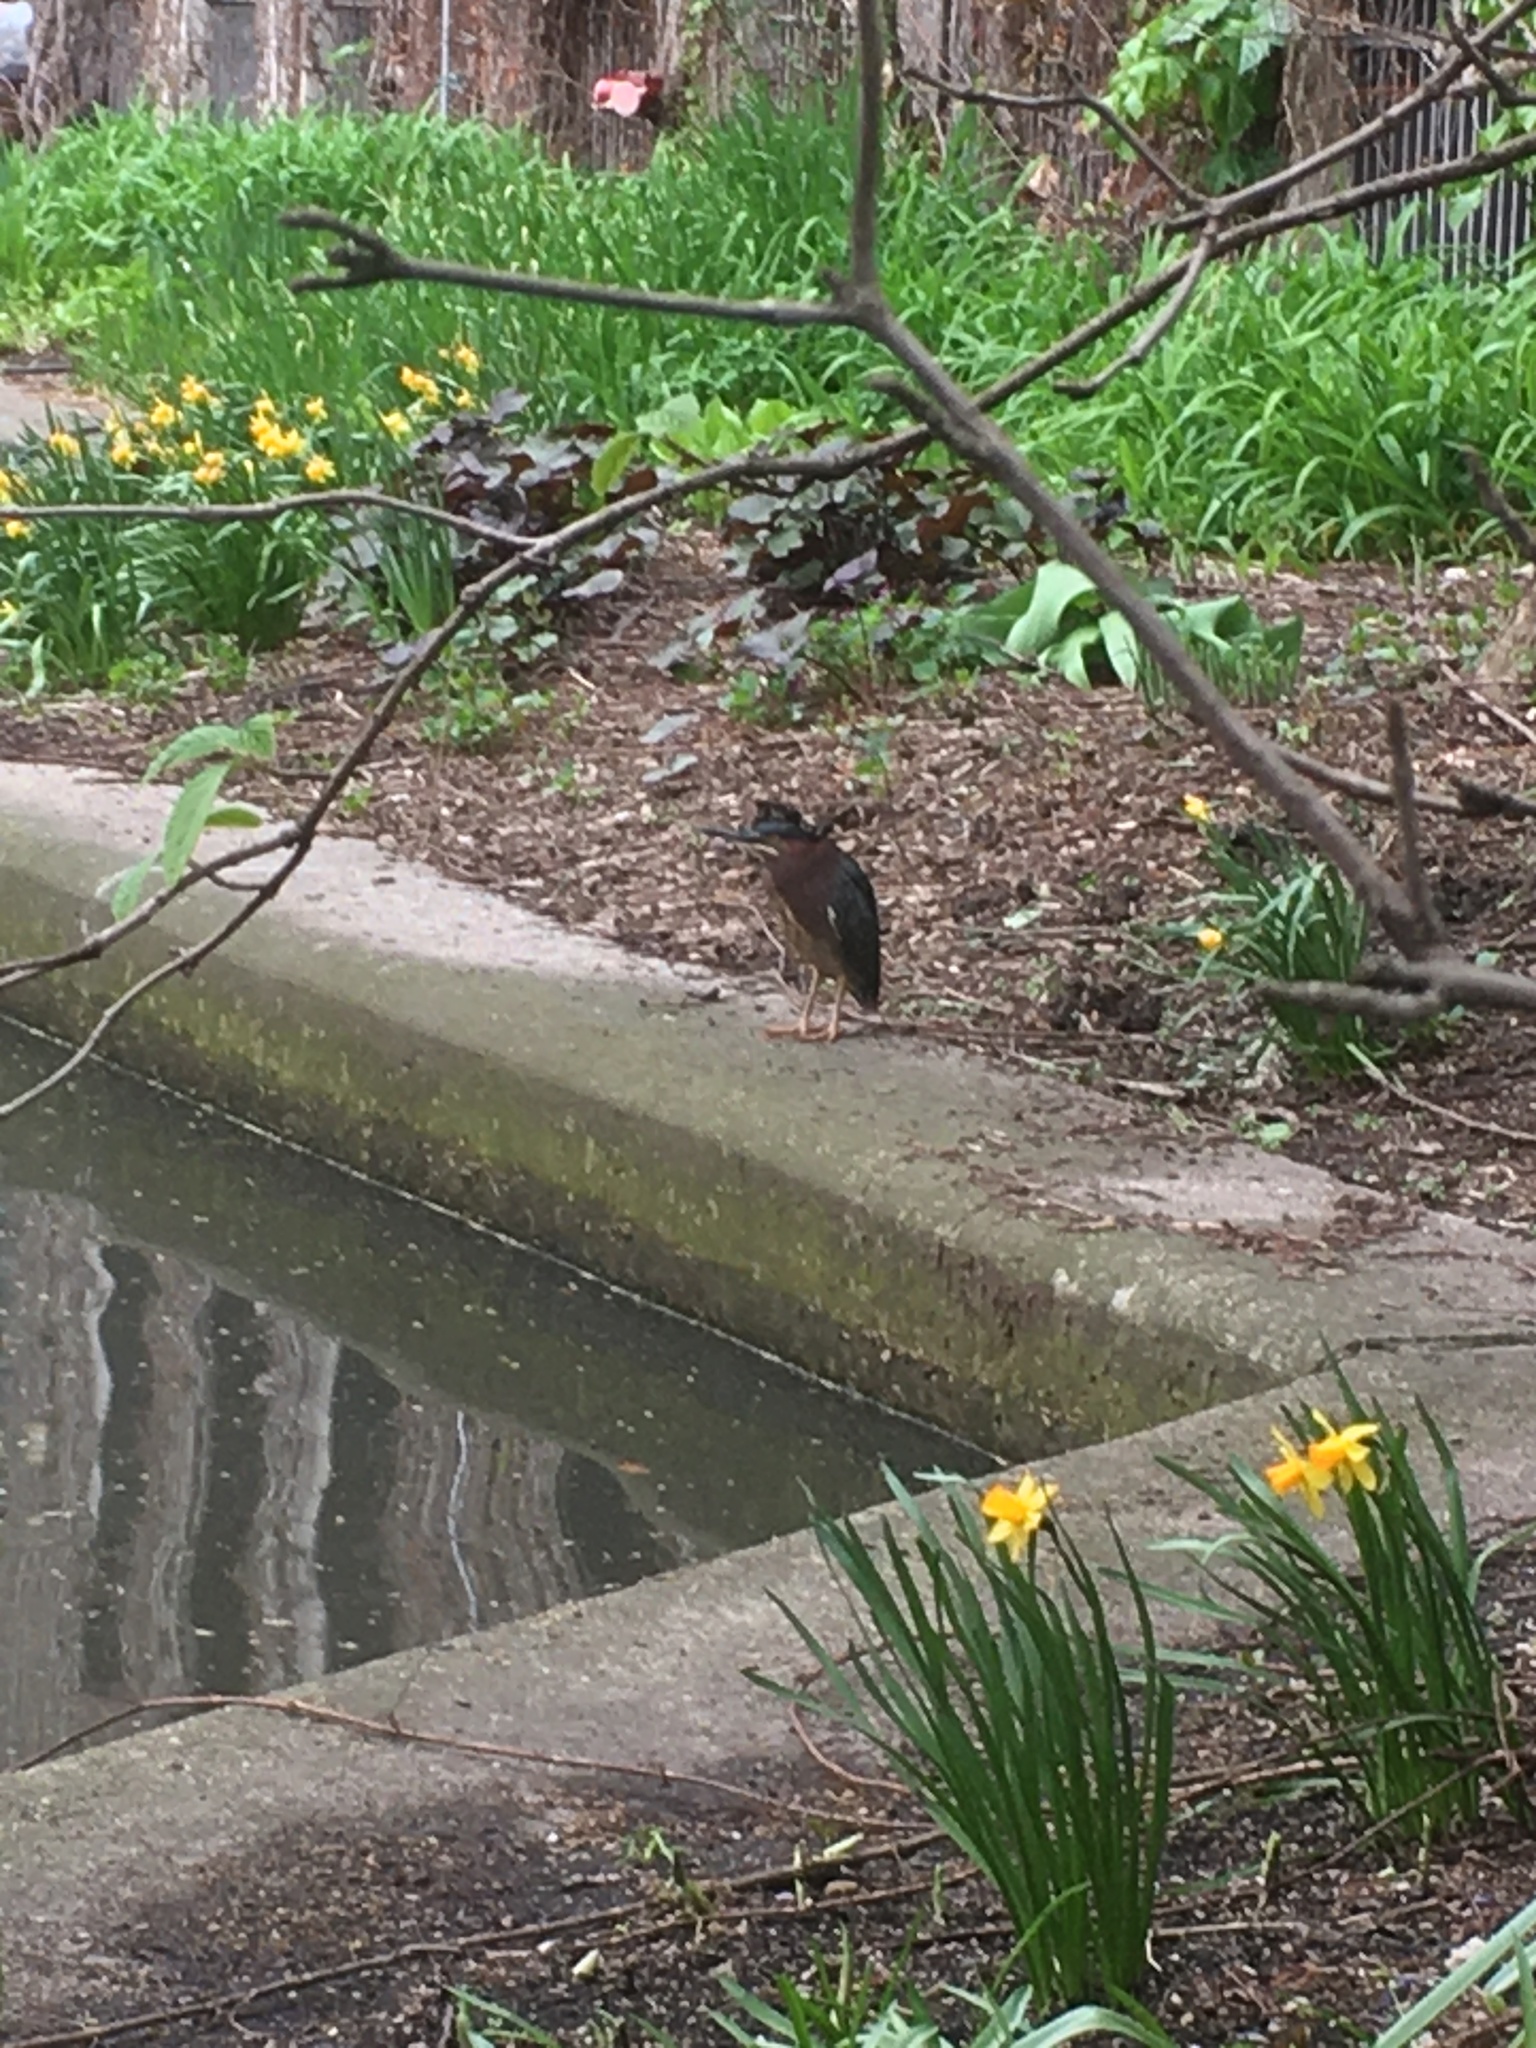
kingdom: Animalia
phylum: Chordata
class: Aves
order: Pelecaniformes
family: Ardeidae
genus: Butorides
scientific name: Butorides virescens
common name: Green heron
